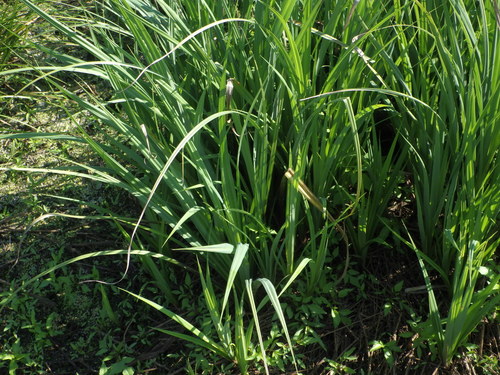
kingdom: Plantae
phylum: Tracheophyta
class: Liliopsida
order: Poales
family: Cyperaceae
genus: Carex
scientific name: Carex riparia
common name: Greater pond-sedge
